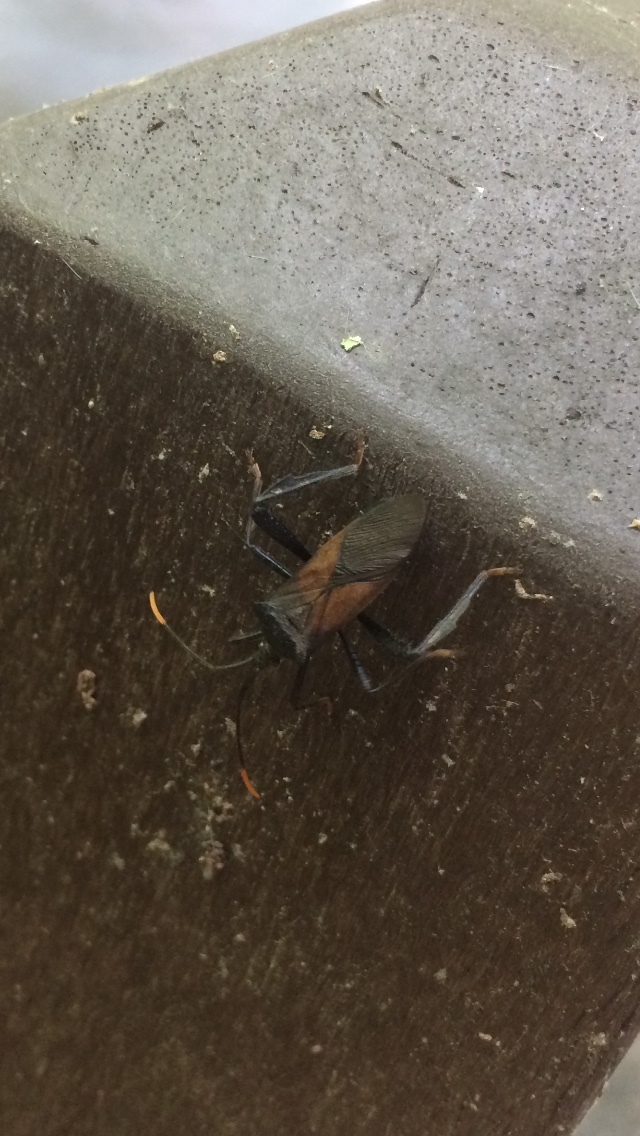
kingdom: Animalia
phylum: Arthropoda
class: Insecta
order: Hemiptera
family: Coreidae
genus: Acanthocephala
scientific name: Acanthocephala terminalis
